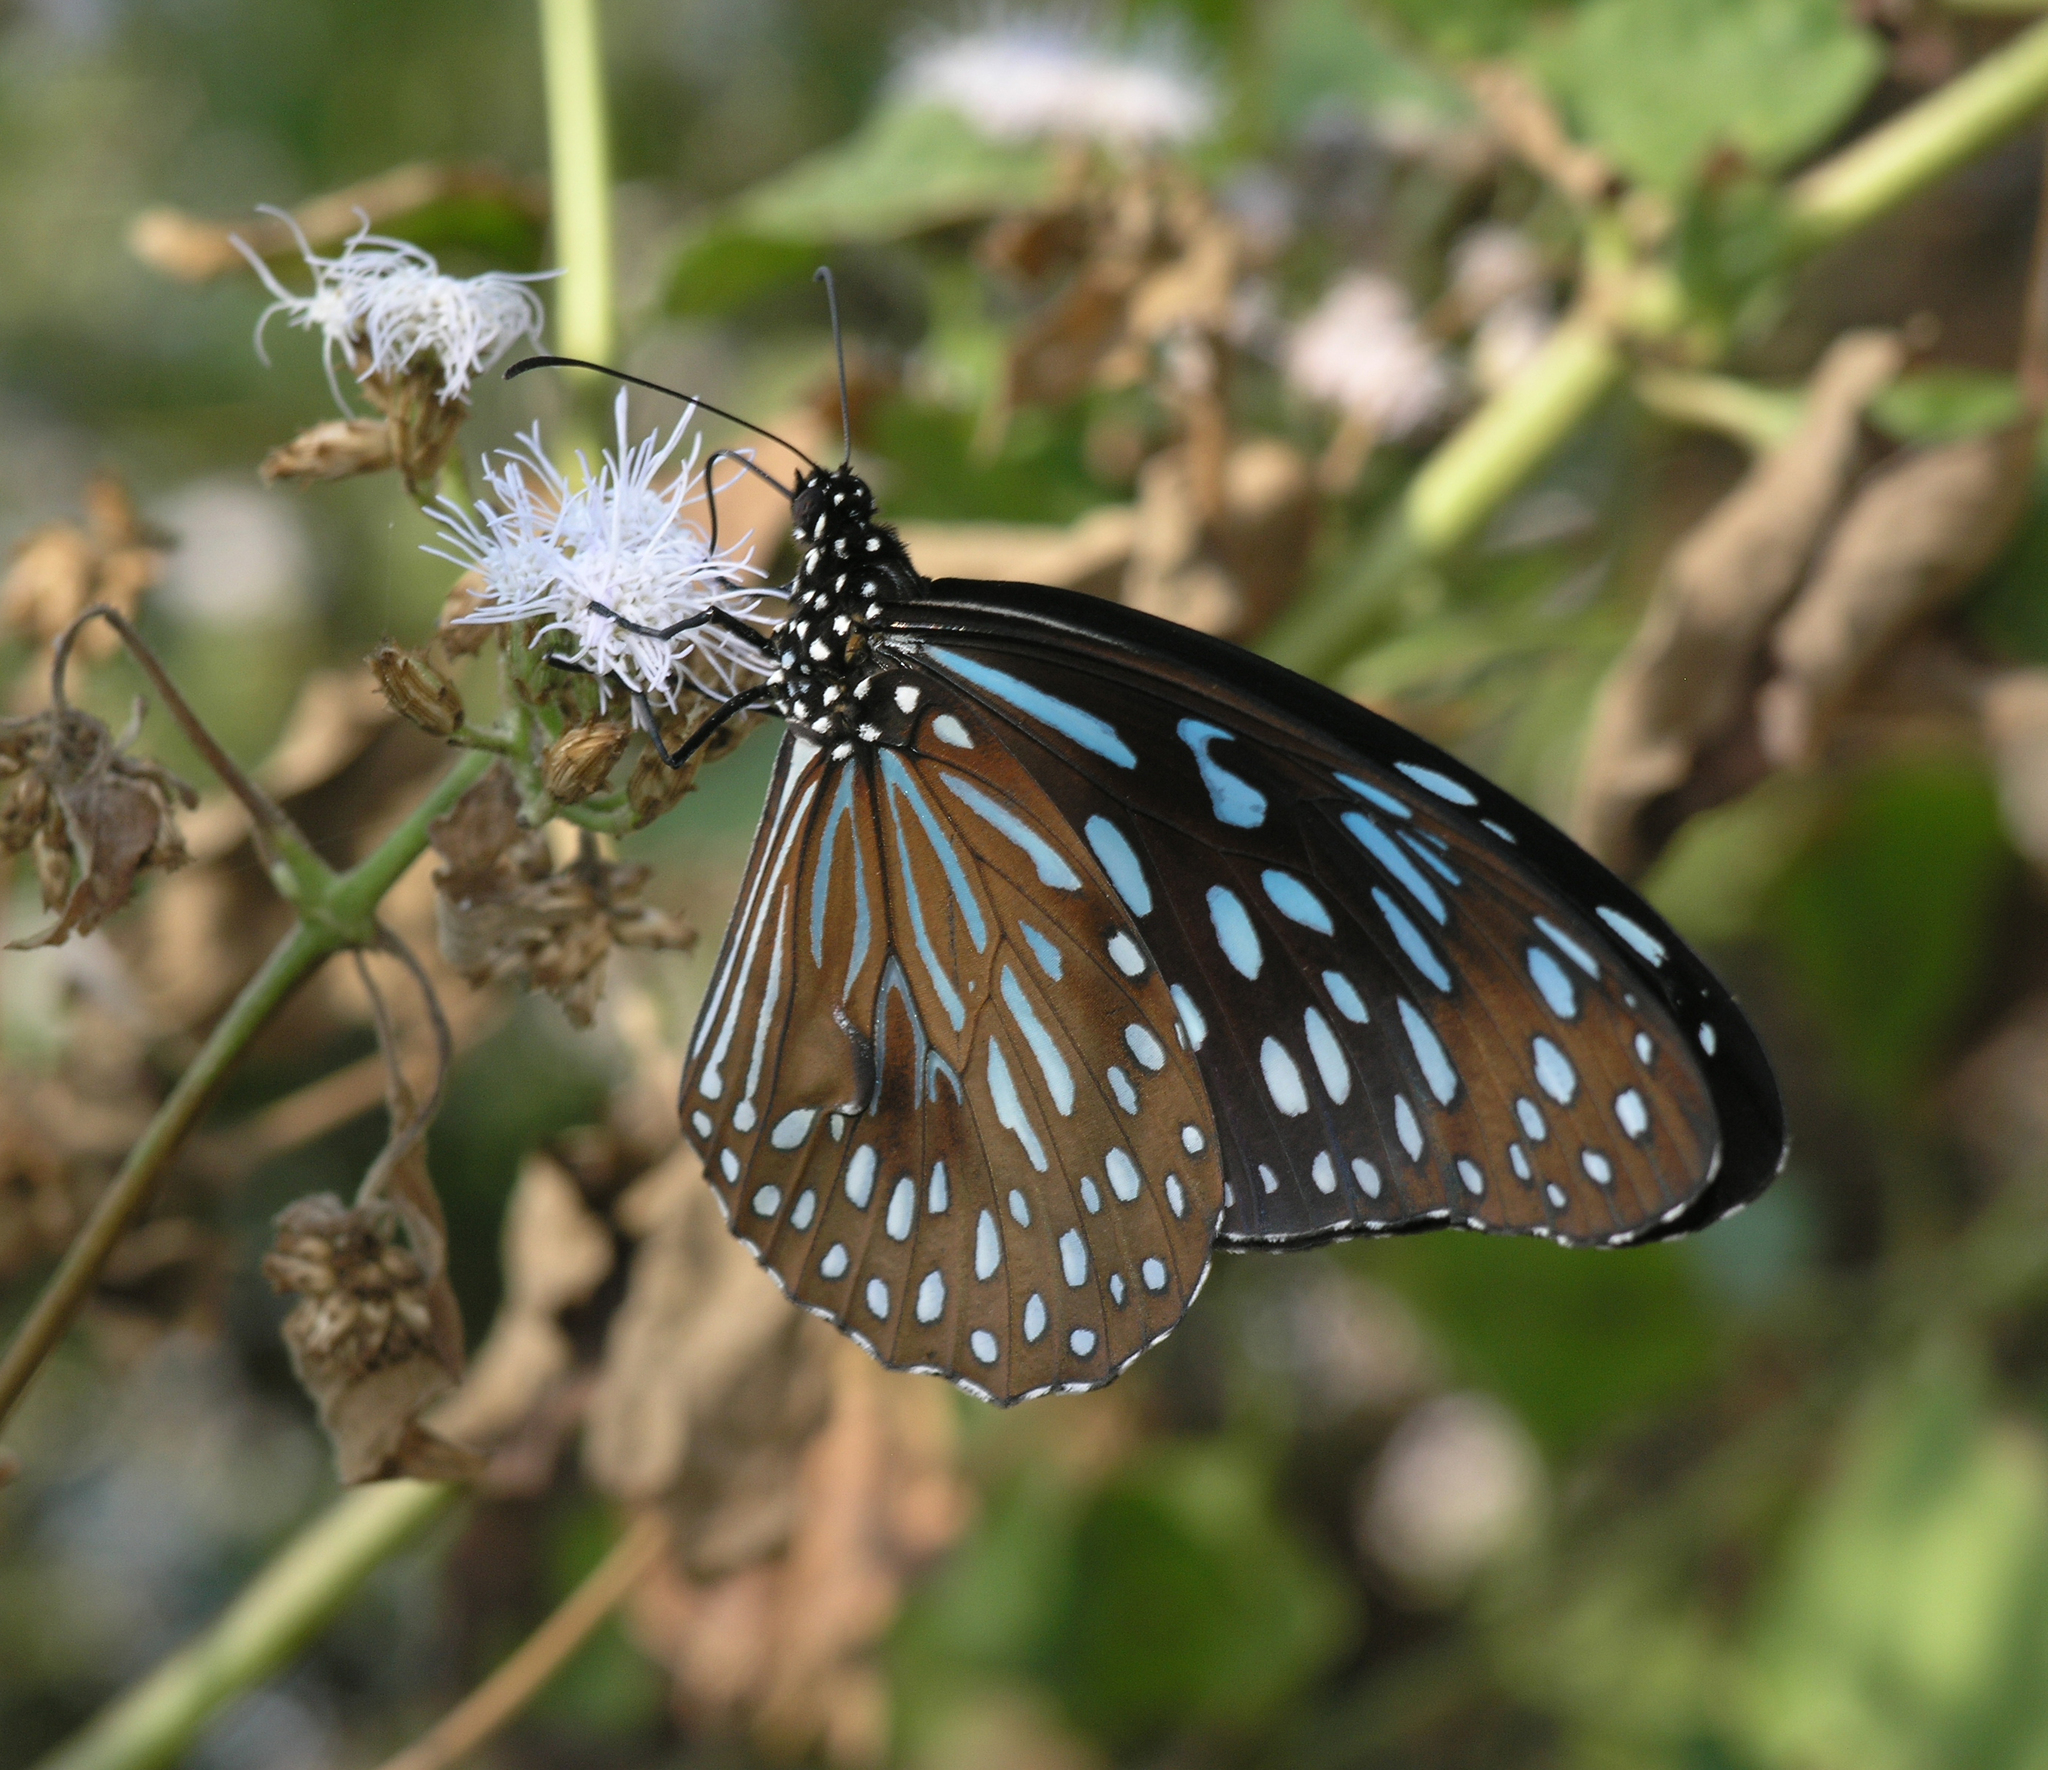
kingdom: Animalia
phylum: Arthropoda
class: Insecta
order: Lepidoptera
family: Nymphalidae
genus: Tirumala
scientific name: Tirumala septentrionis
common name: Dark blue tiger butterfly
